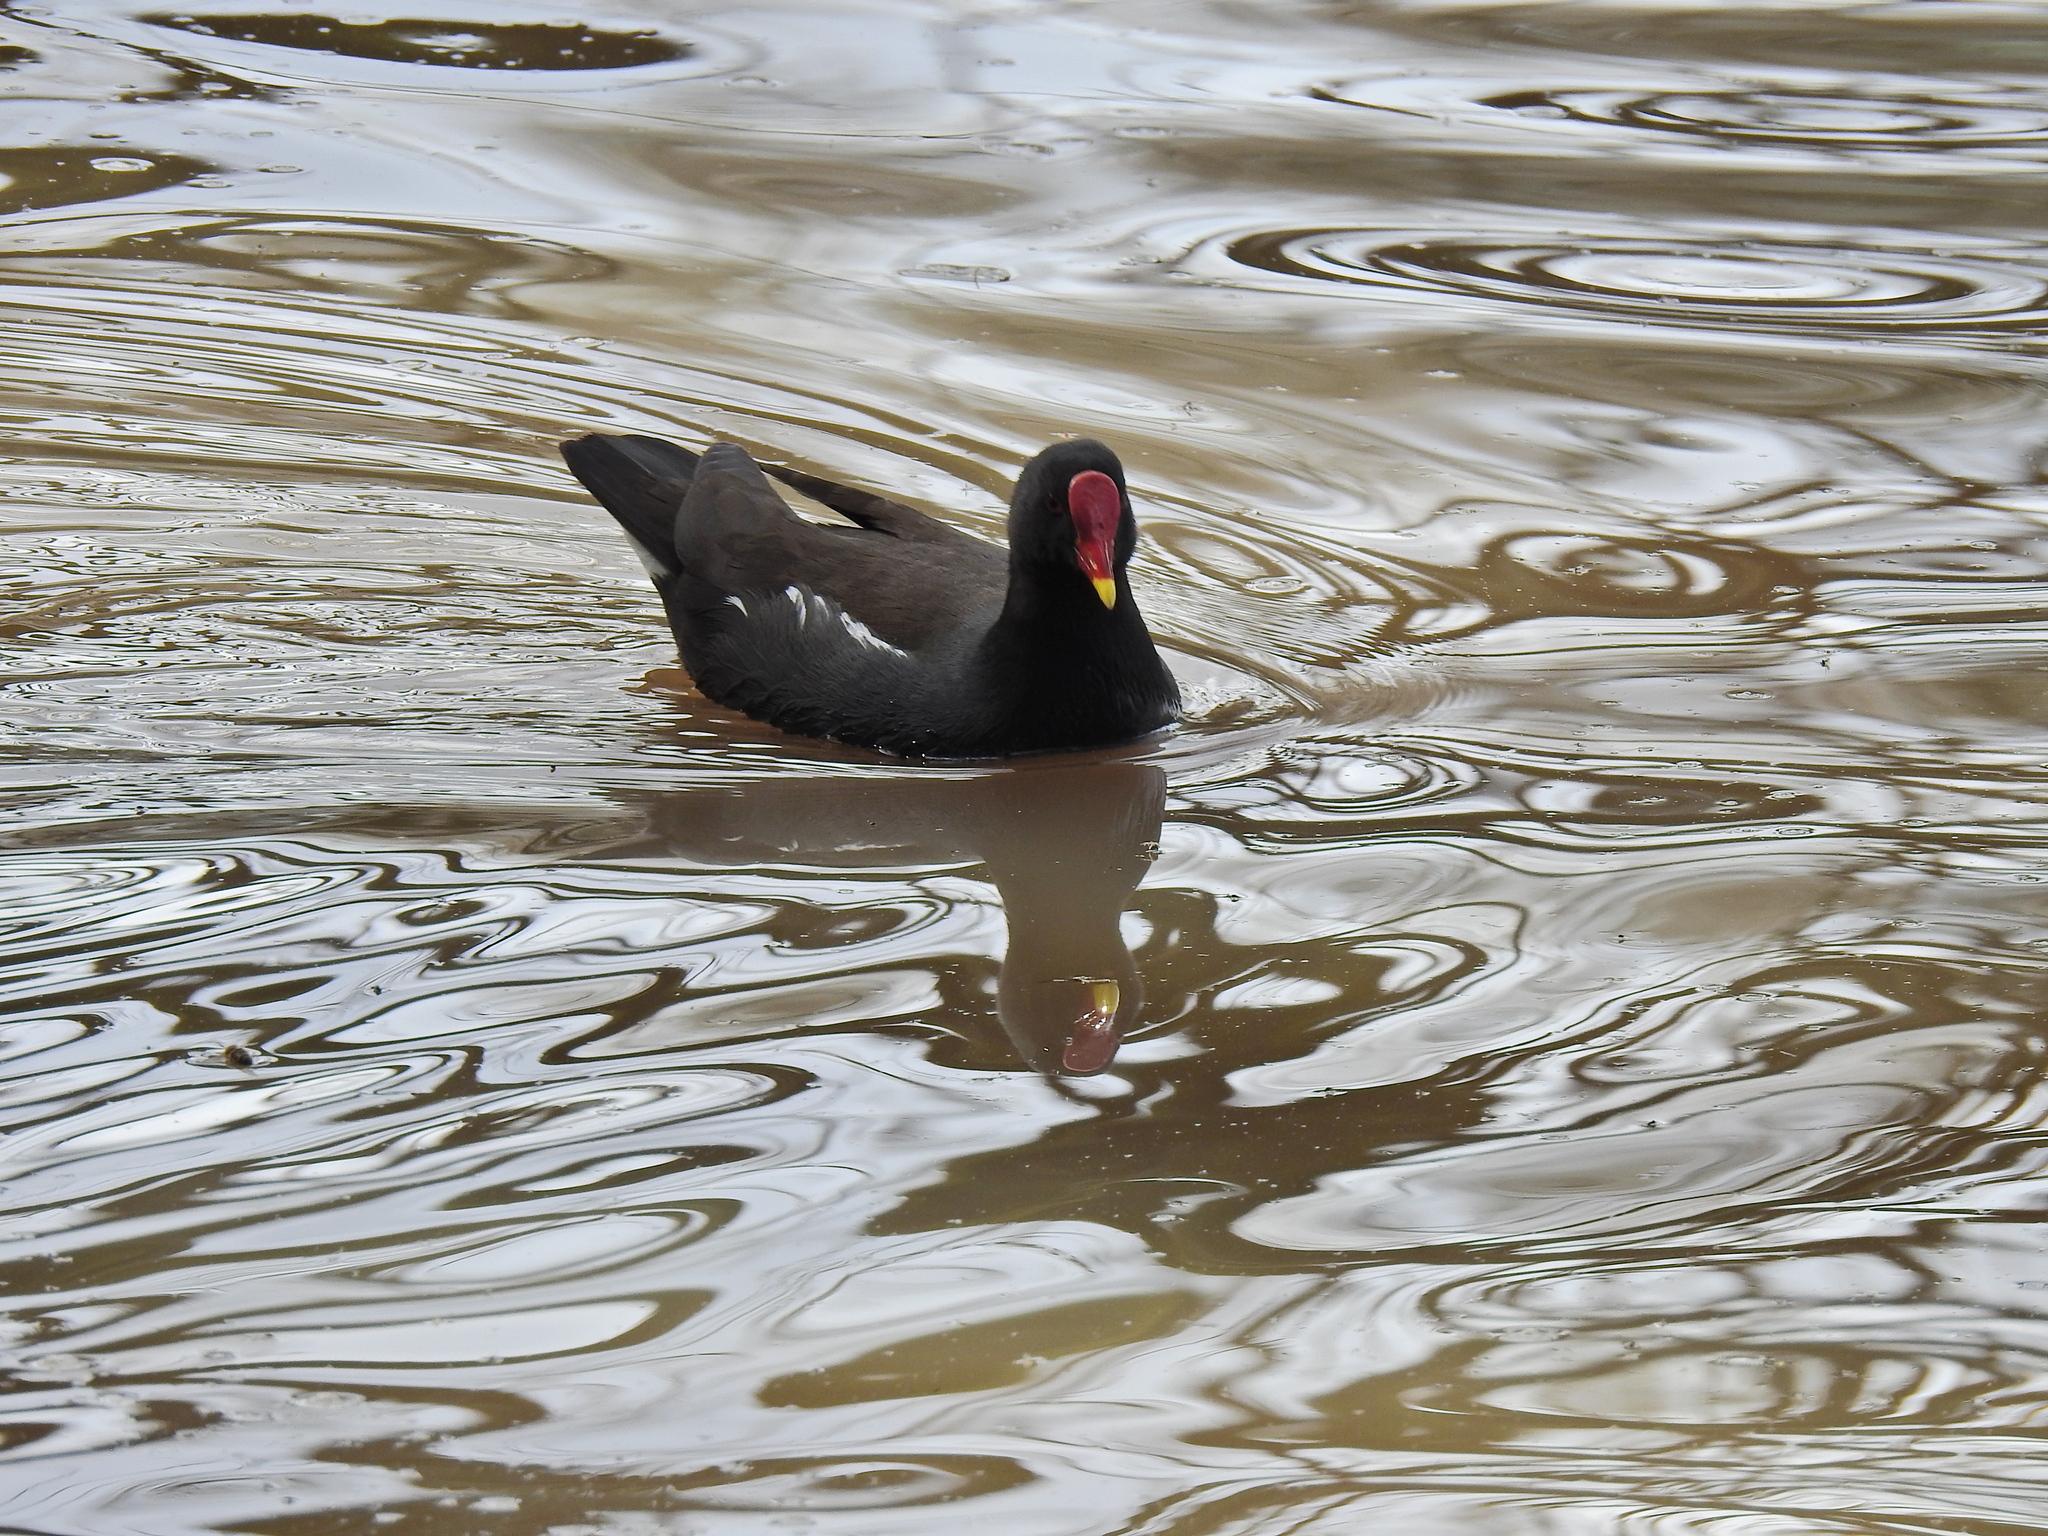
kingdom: Animalia
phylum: Chordata
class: Aves
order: Gruiformes
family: Rallidae
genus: Gallinula
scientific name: Gallinula chloropus
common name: Common moorhen
